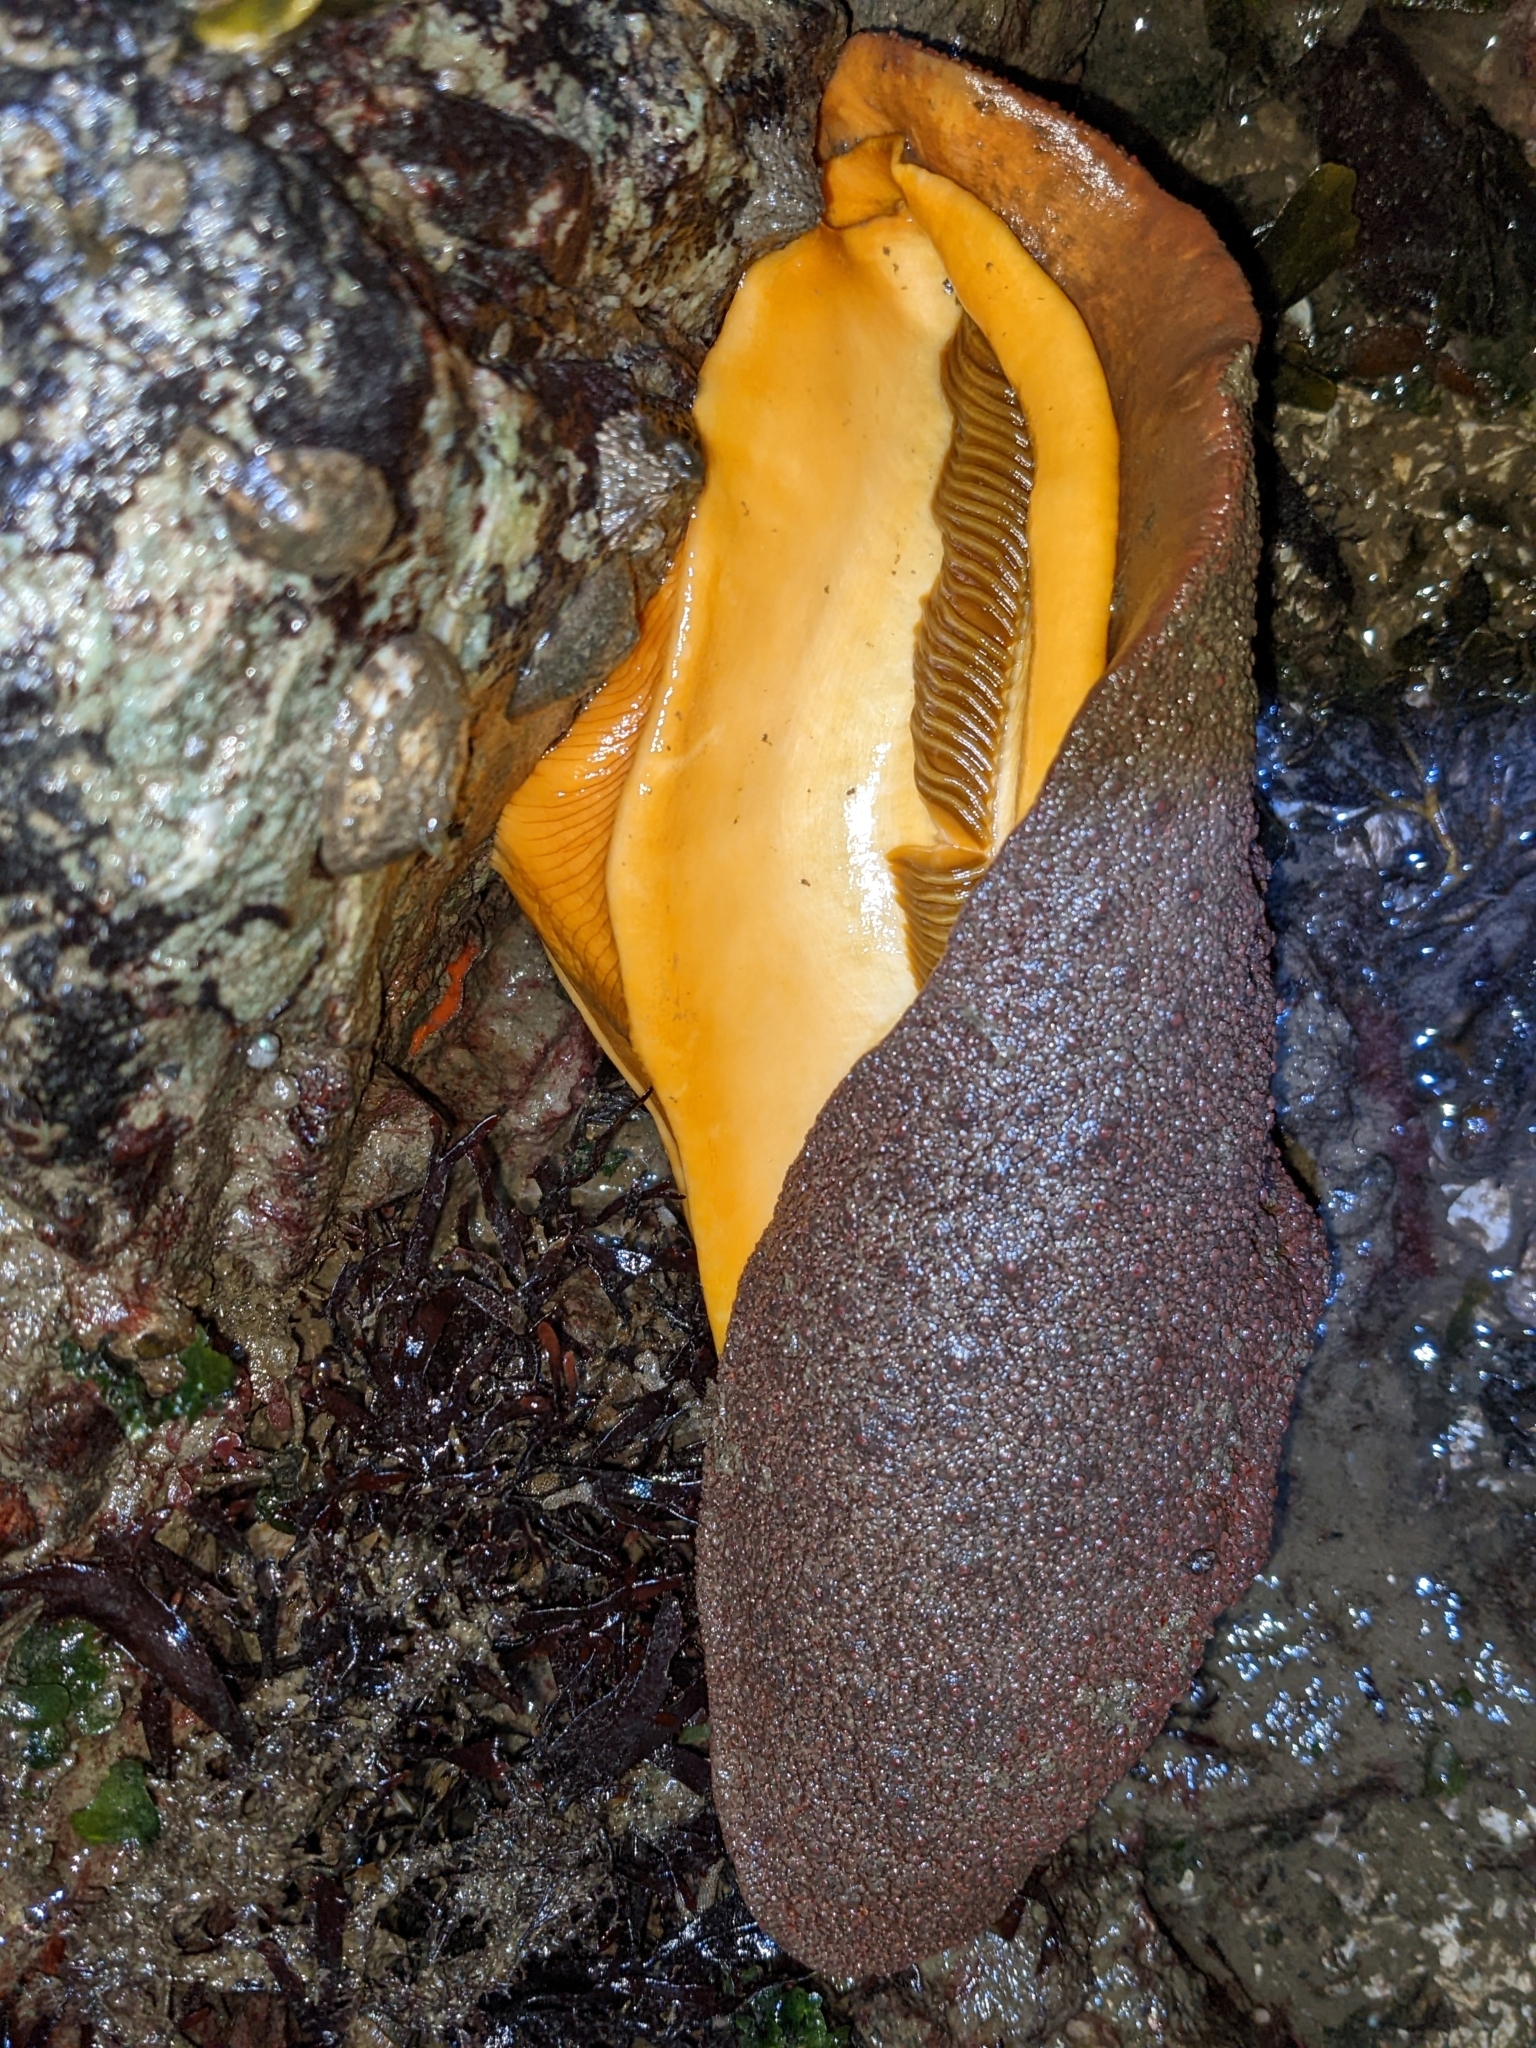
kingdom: Animalia
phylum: Mollusca
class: Polyplacophora
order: Chitonida
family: Acanthochitonidae
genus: Cryptochiton
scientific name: Cryptochiton stelleri
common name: Giant pacific chiton
